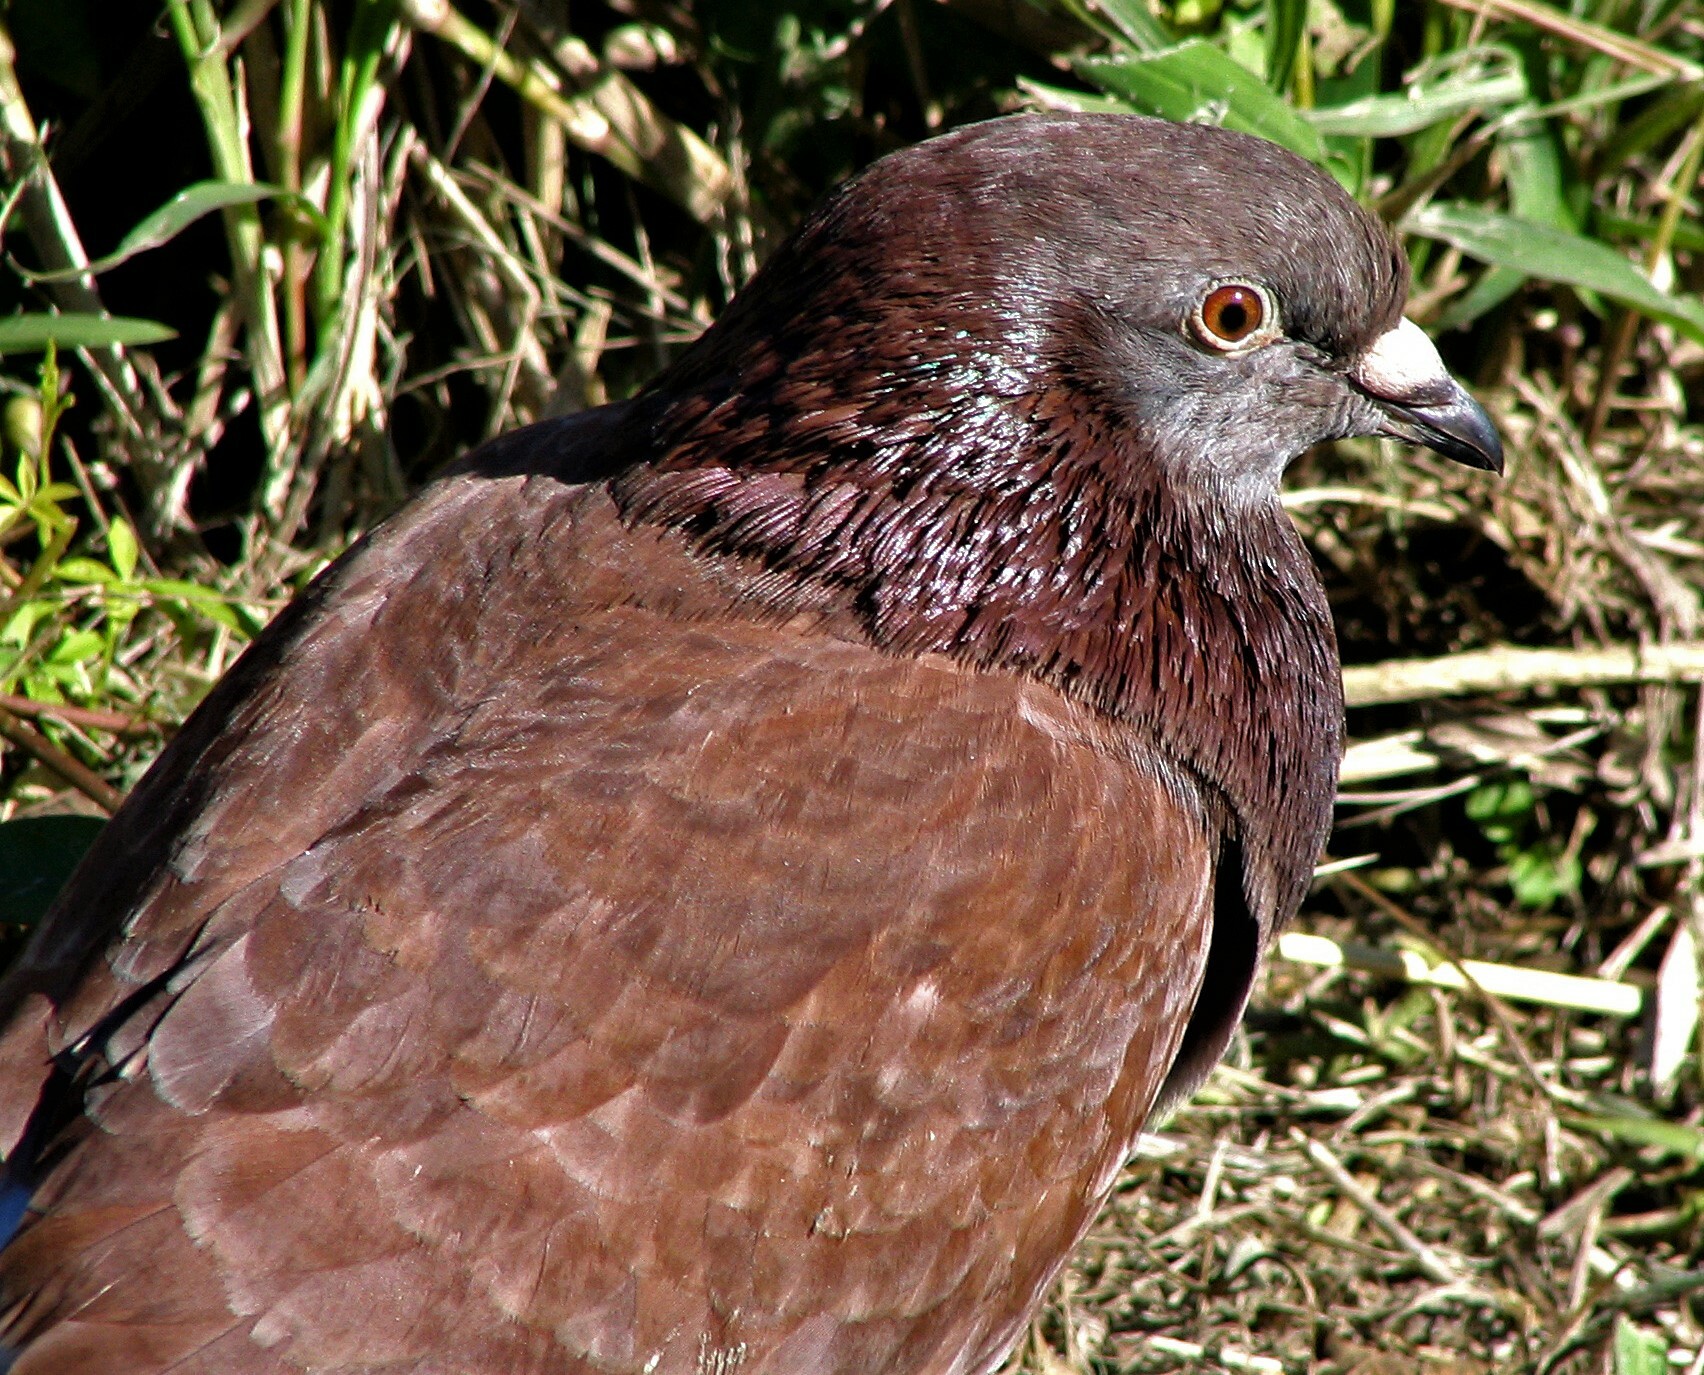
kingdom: Animalia
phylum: Chordata
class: Aves
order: Columbiformes
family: Columbidae
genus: Columba
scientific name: Columba livia
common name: Rock pigeon
